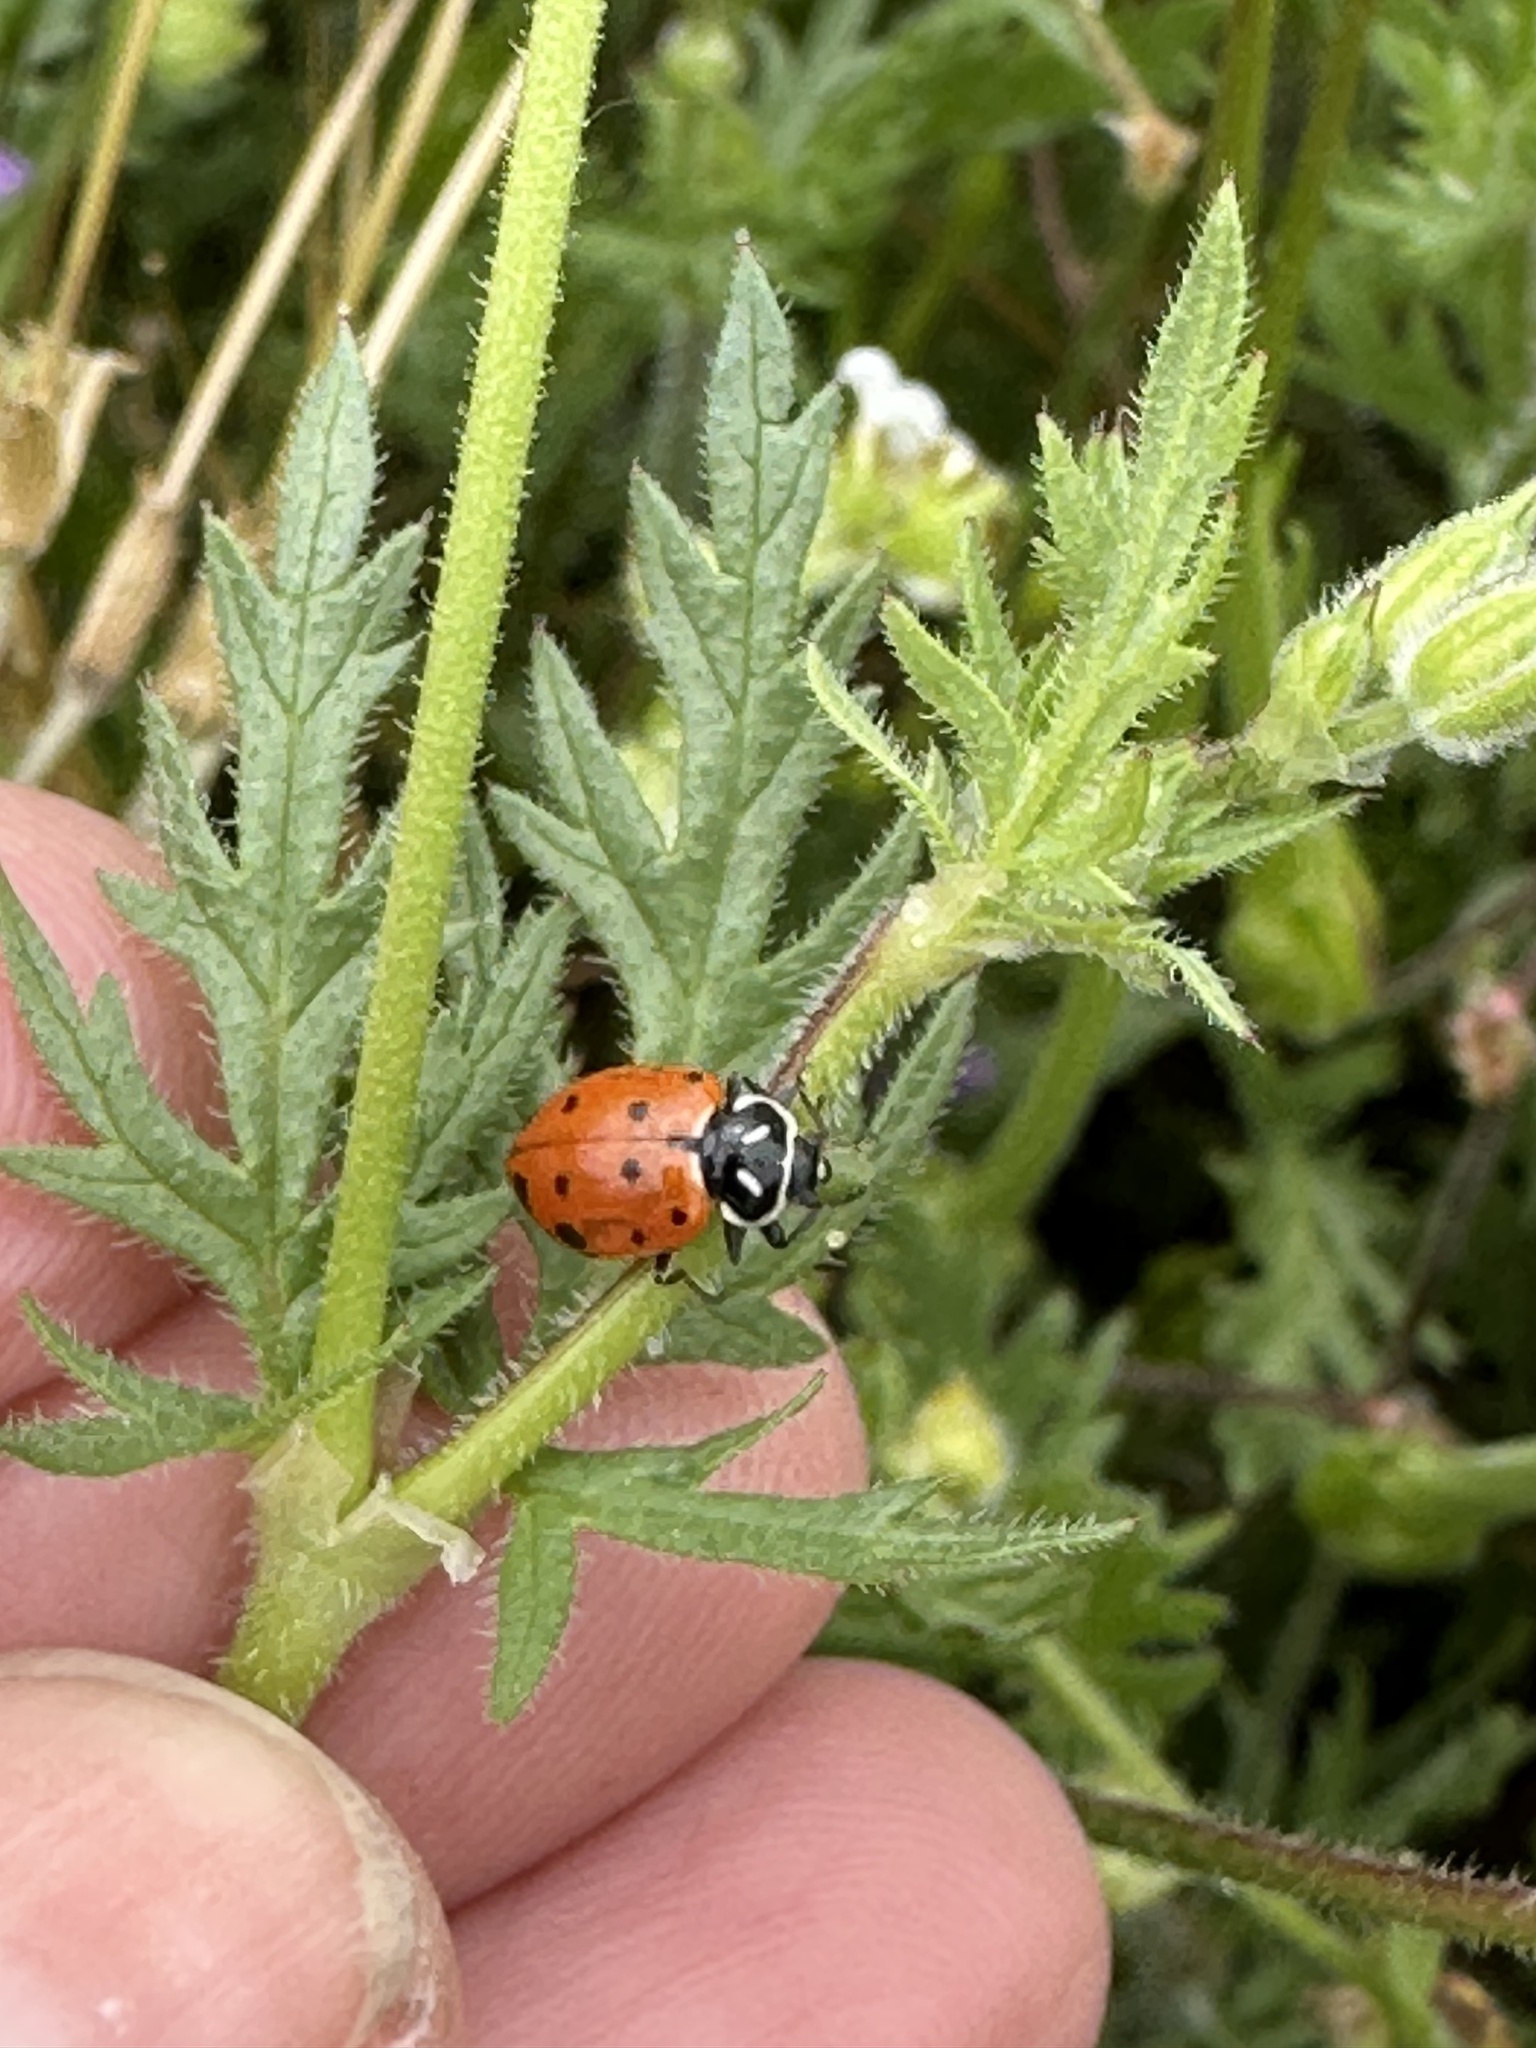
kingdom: Animalia
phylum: Arthropoda
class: Insecta
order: Coleoptera
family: Coccinellidae
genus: Hippodamia
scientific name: Hippodamia convergens
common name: Convergent lady beetle
